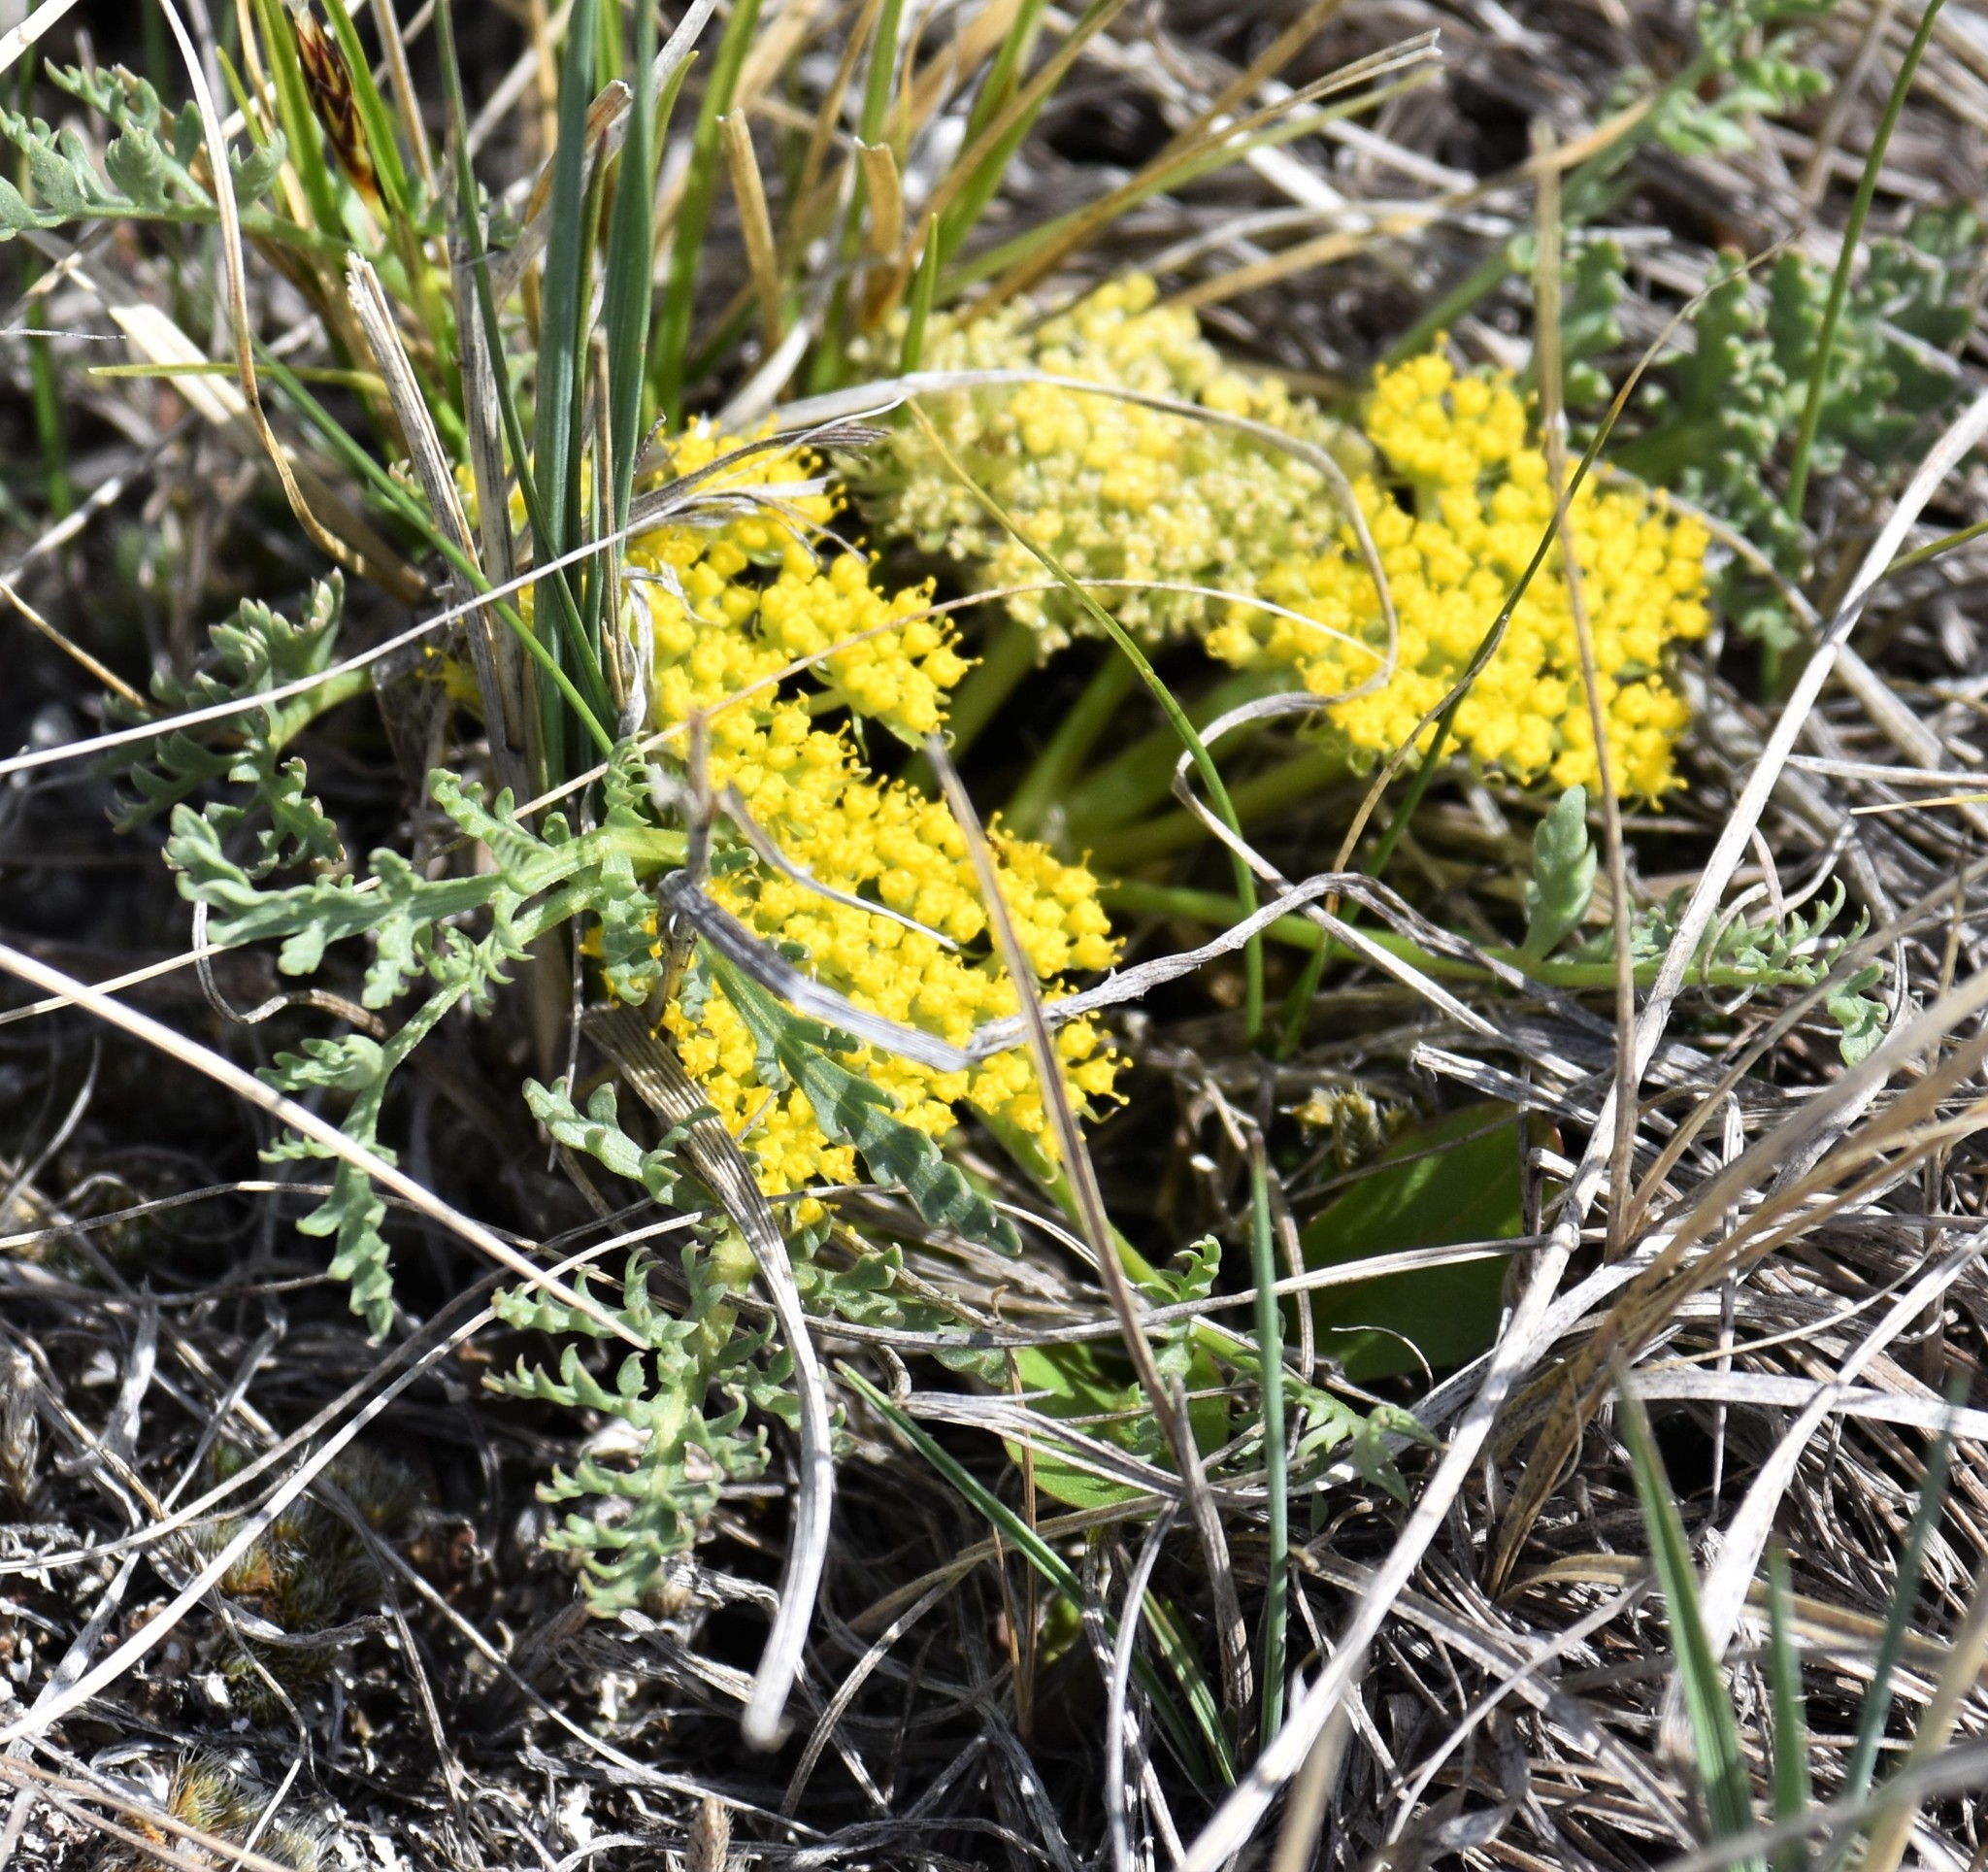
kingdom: Plantae
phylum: Tracheophyta
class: Magnoliopsida
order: Apiales
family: Apiaceae
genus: Musineon
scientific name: Musineon divaricatum
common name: Plains musineon
